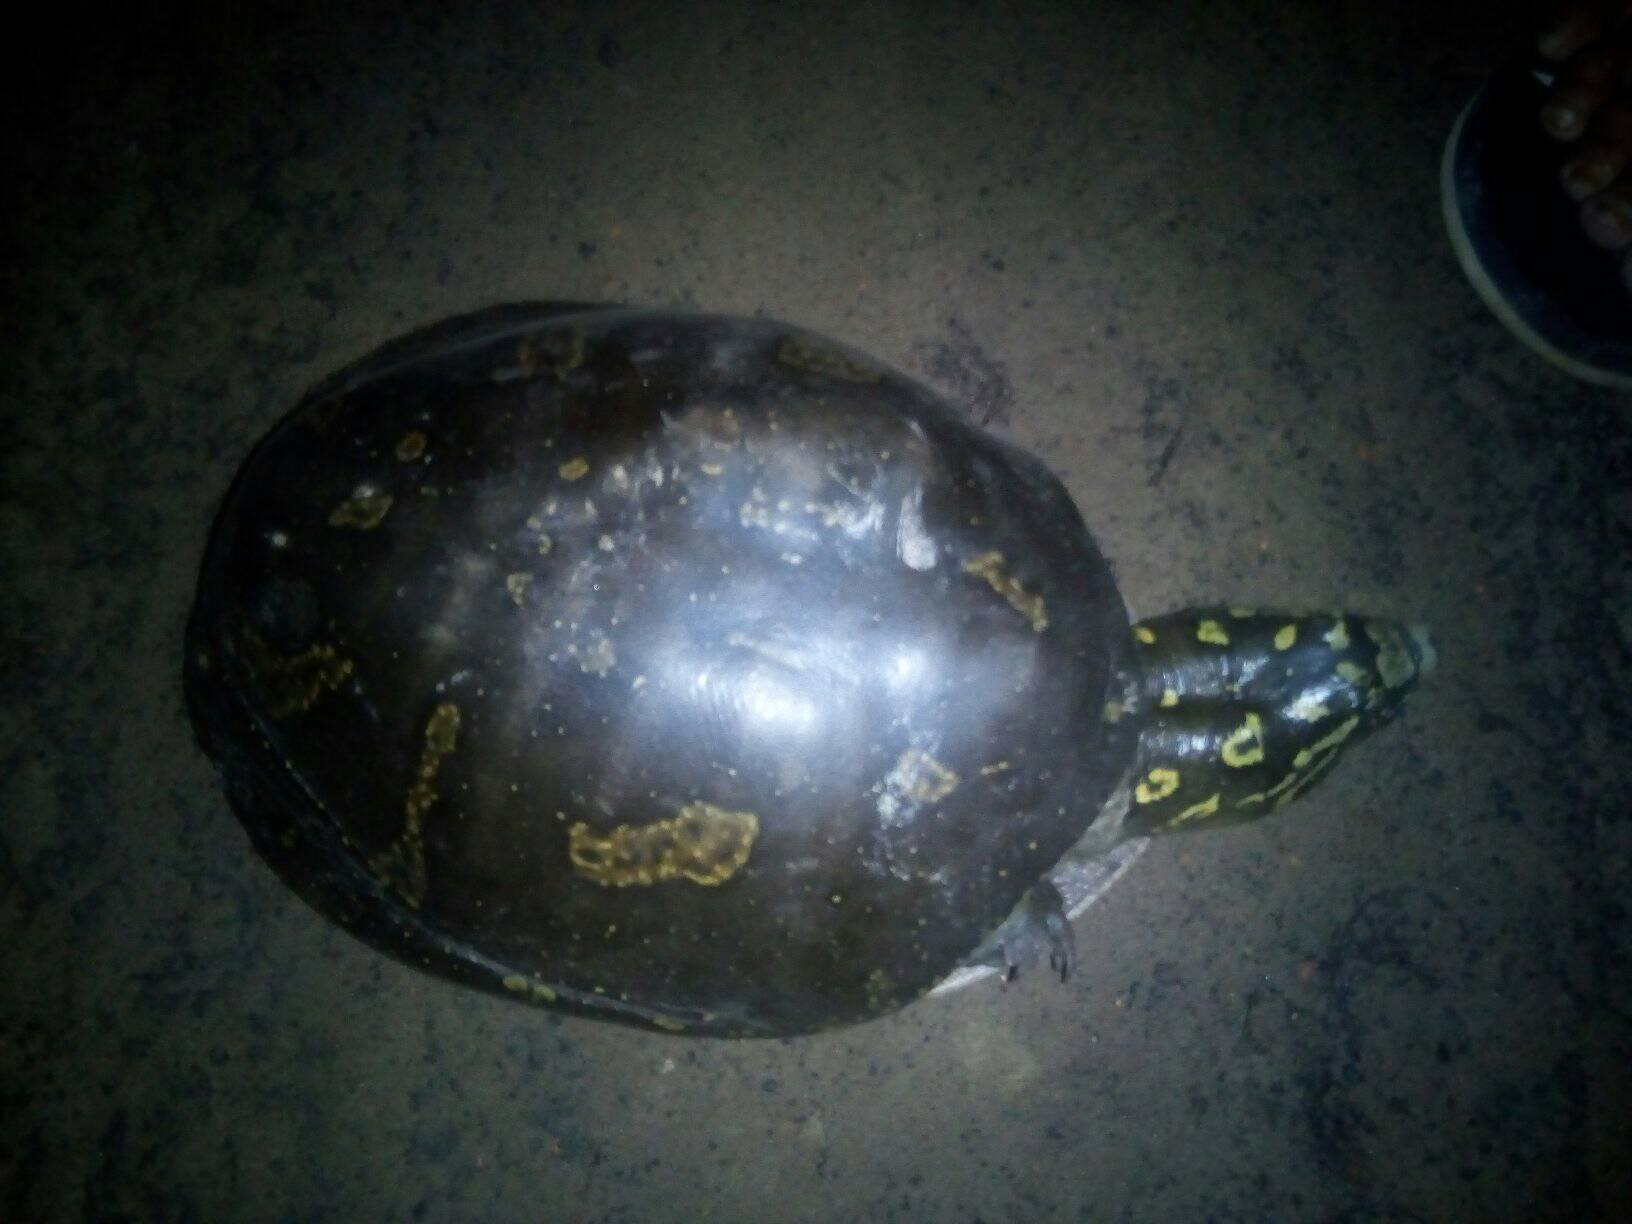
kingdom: Animalia
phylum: Chordata
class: Testudines
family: Trionychidae
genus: Lissemys
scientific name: Lissemys punctata
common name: Indian flap-shelled turtle
